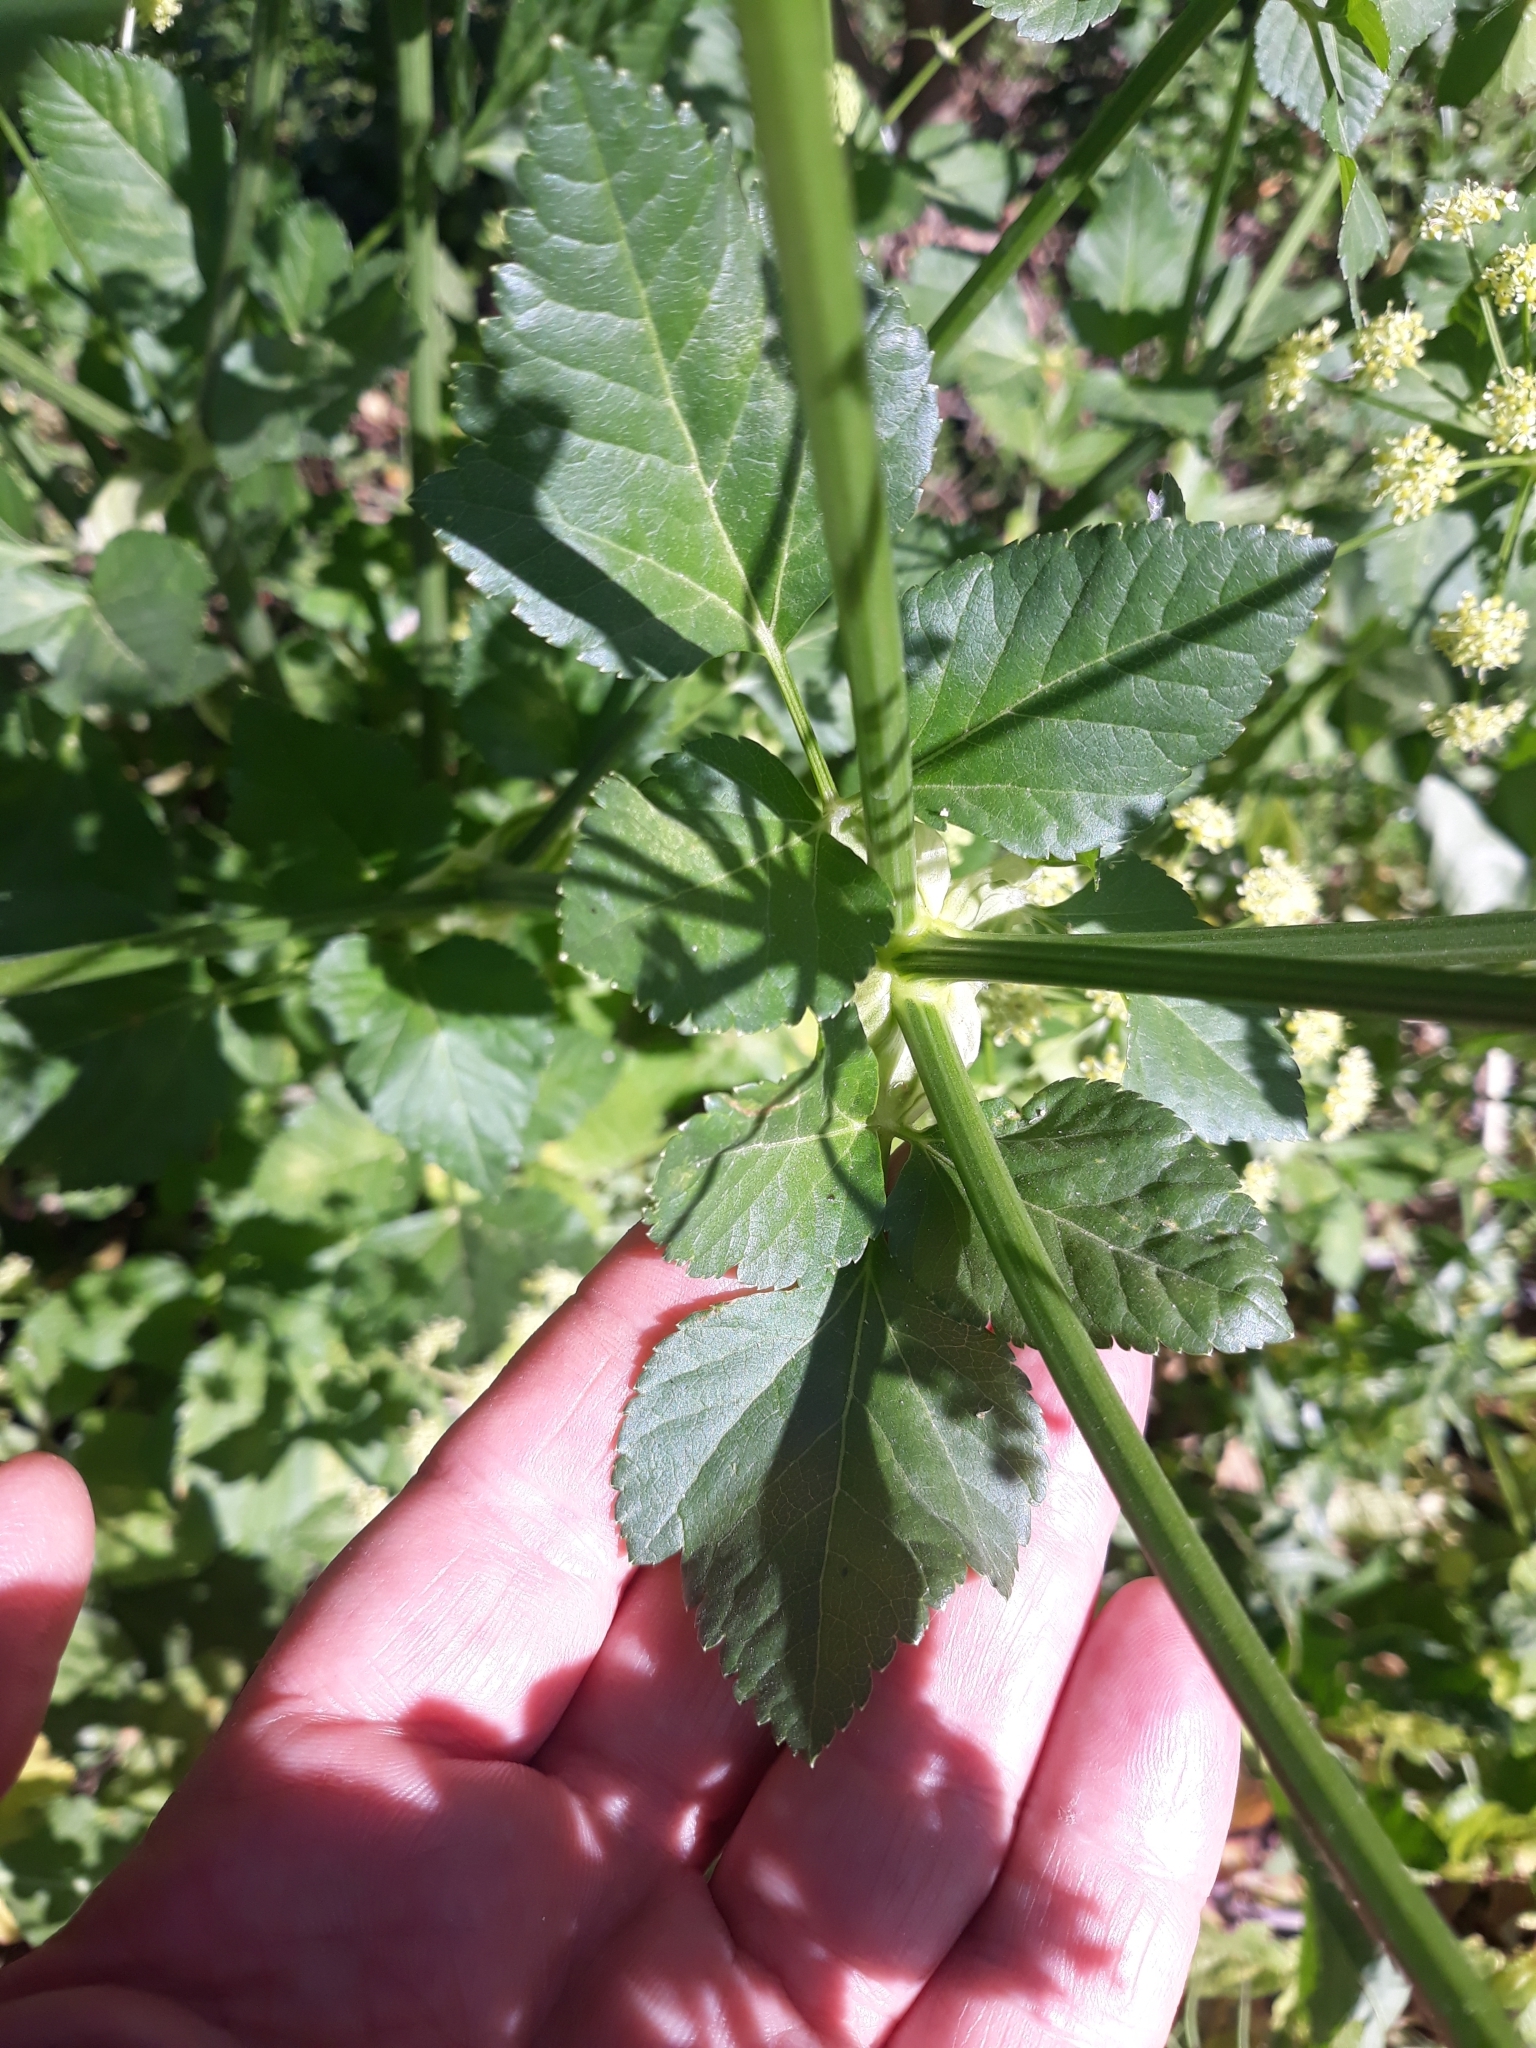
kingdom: Plantae
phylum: Tracheophyta
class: Magnoliopsida
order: Apiales
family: Apiaceae
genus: Smyrnium
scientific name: Smyrnium olusatrum
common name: Alexanders
